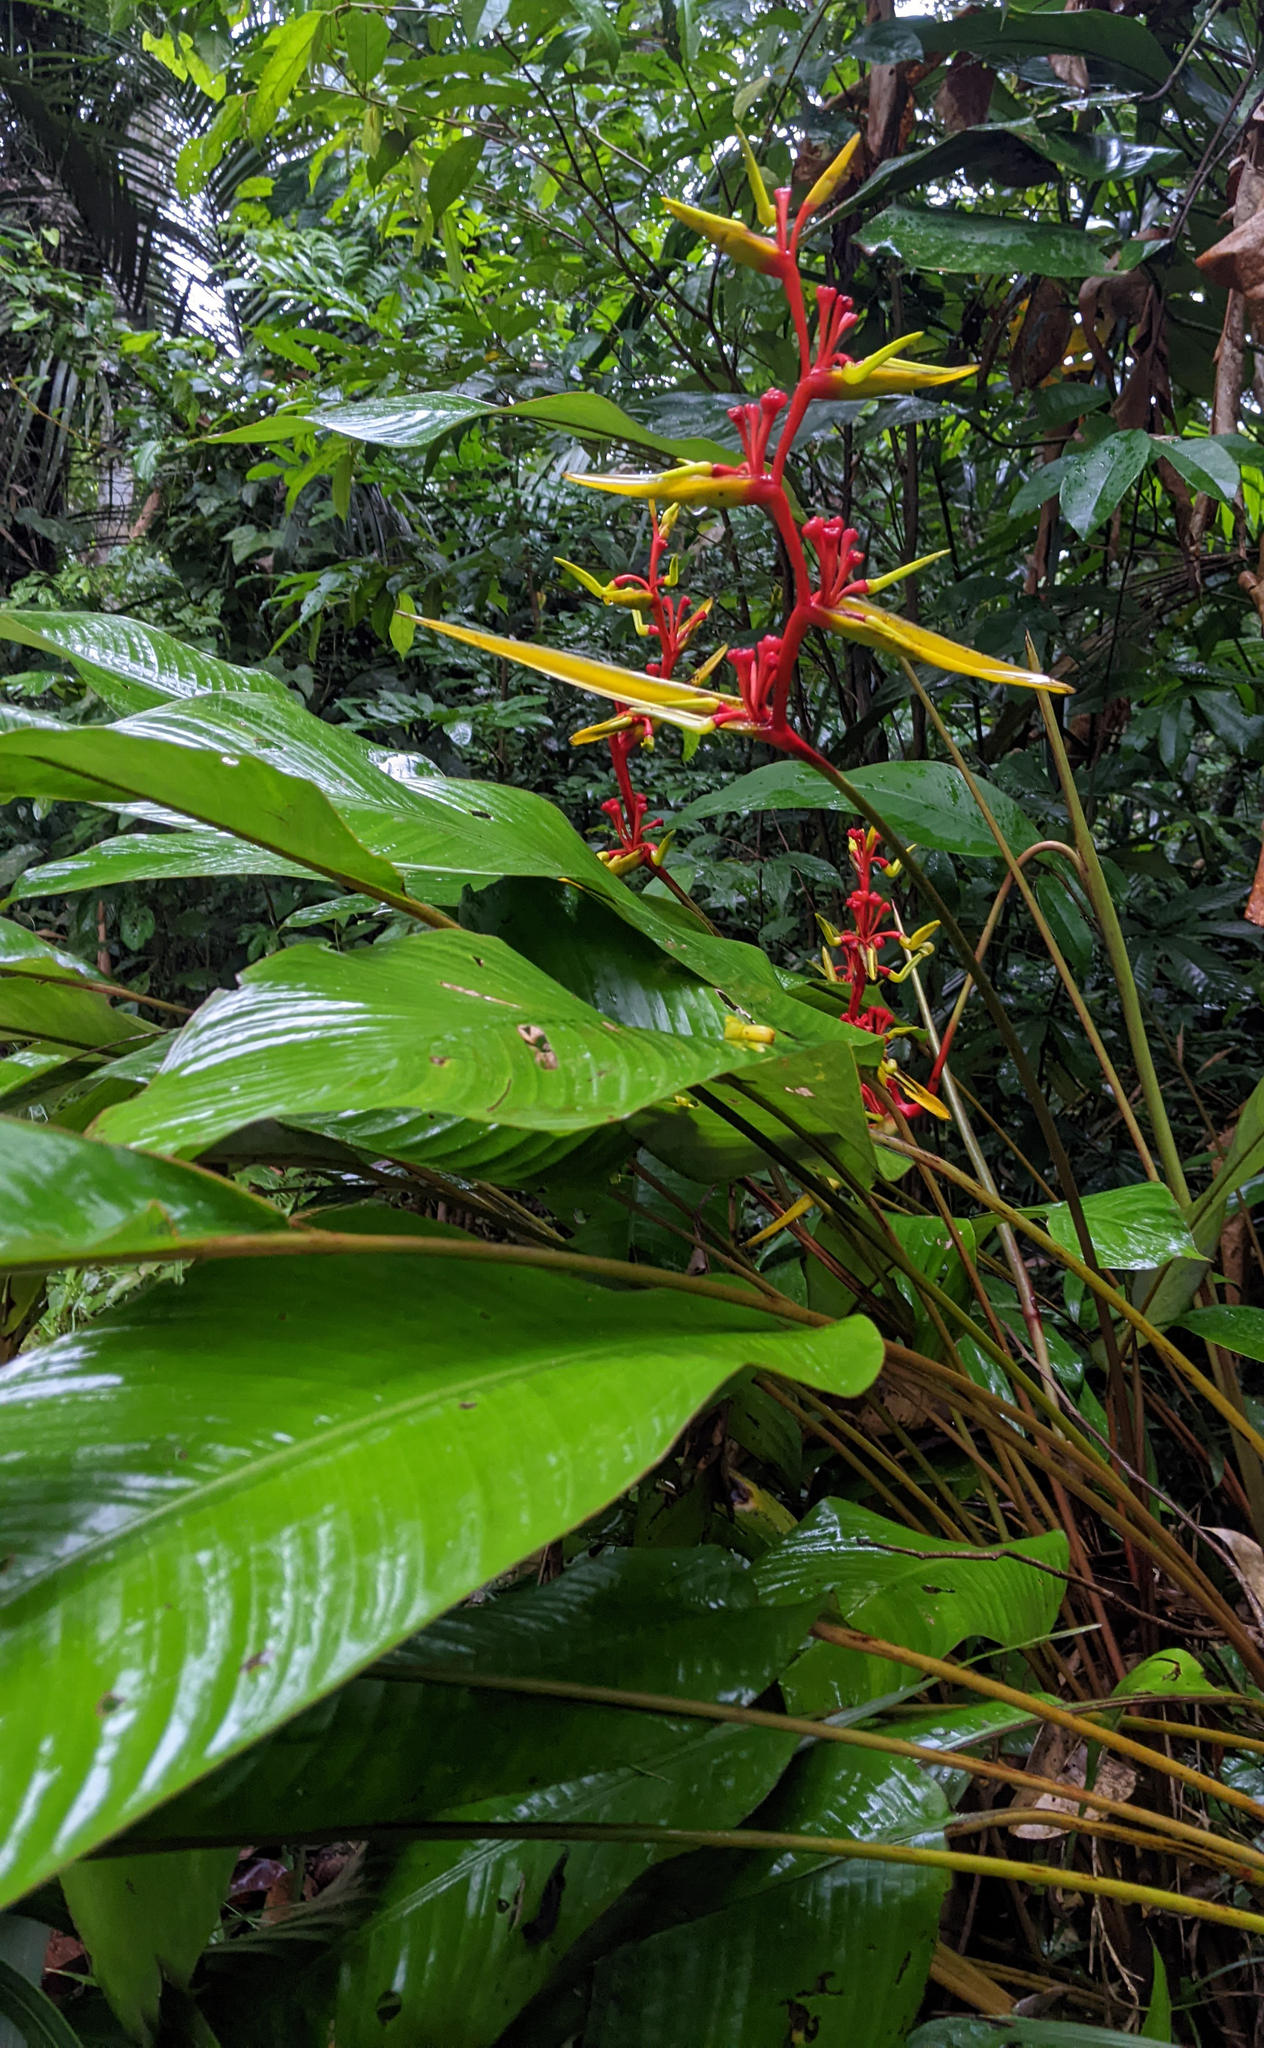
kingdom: Plantae
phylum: Tracheophyta
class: Liliopsida
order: Zingiberales
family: Heliconiaceae
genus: Heliconia
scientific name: Heliconia richardiana
